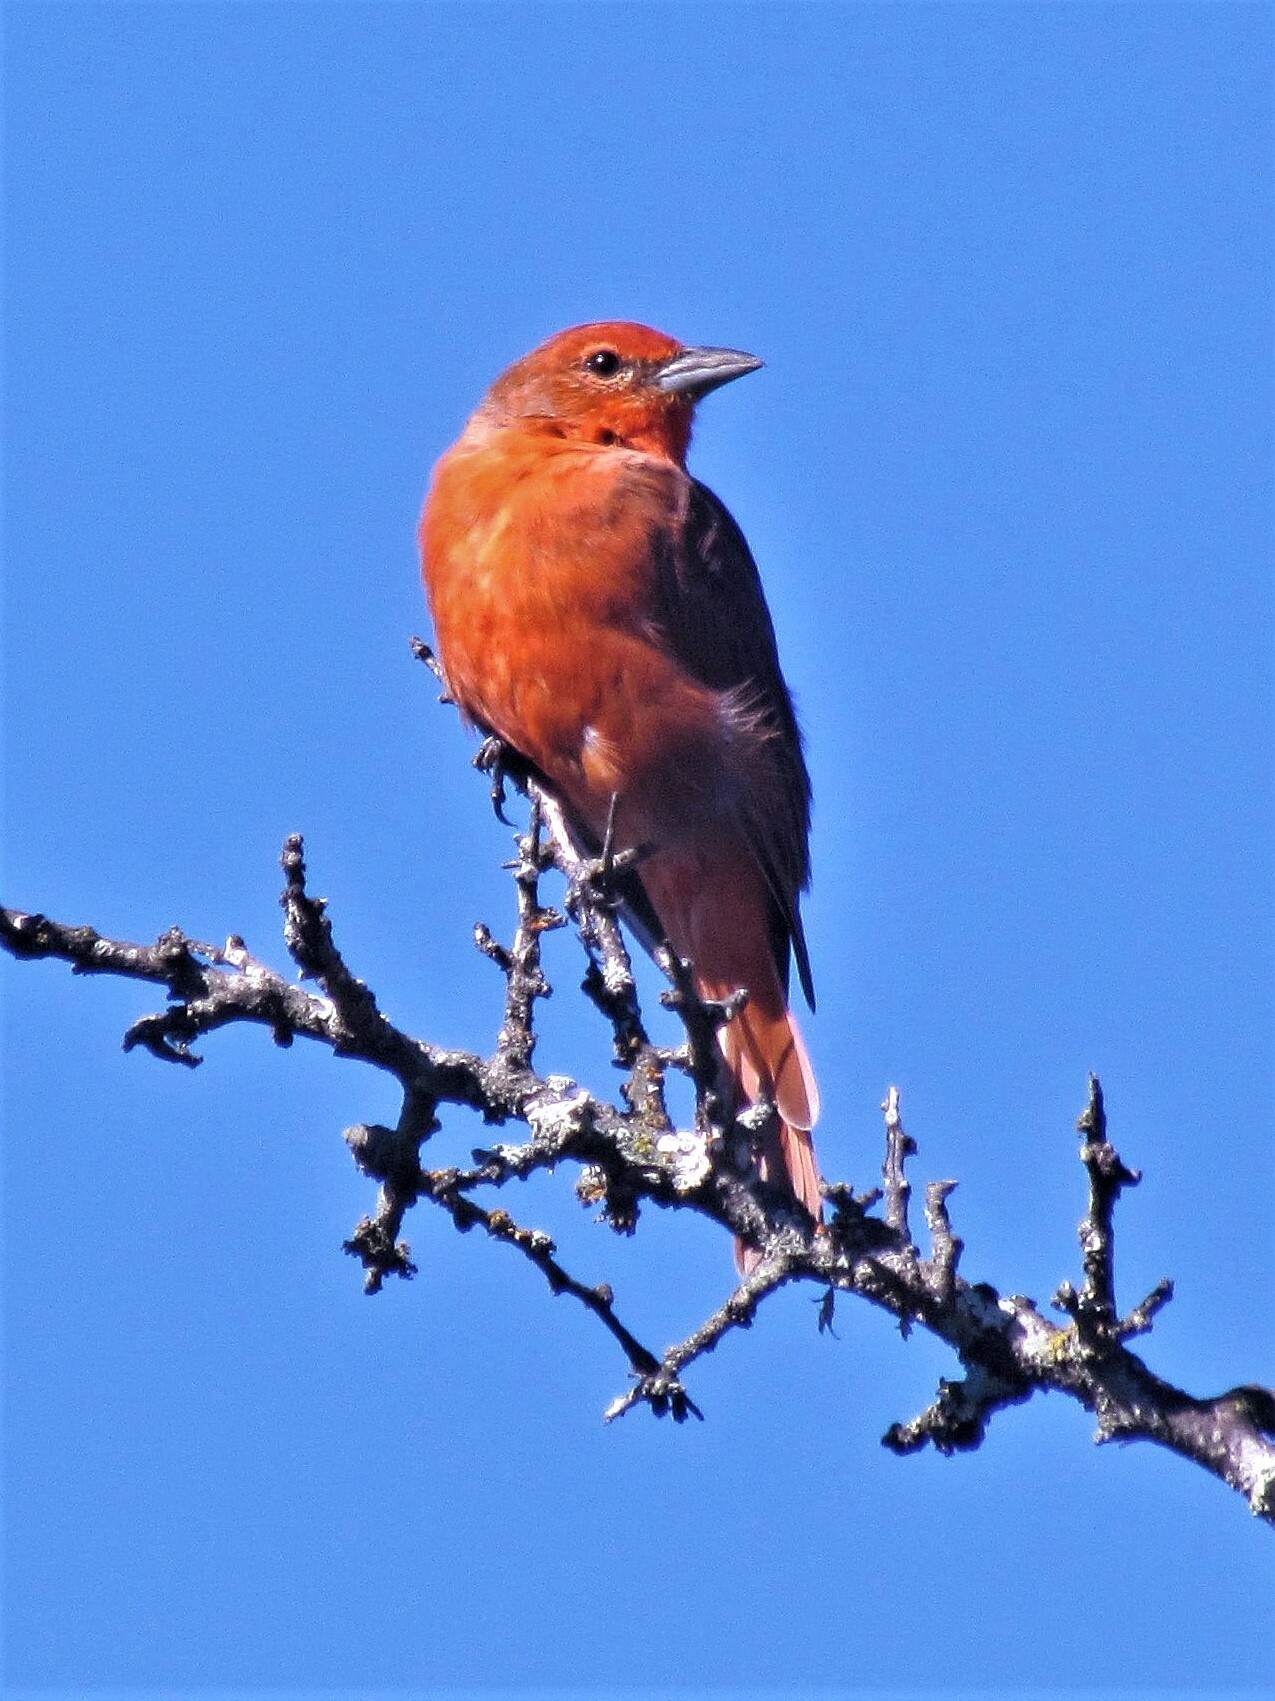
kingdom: Animalia
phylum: Chordata
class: Aves
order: Passeriformes
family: Cardinalidae
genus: Piranga
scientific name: Piranga flava
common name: Red tanager
